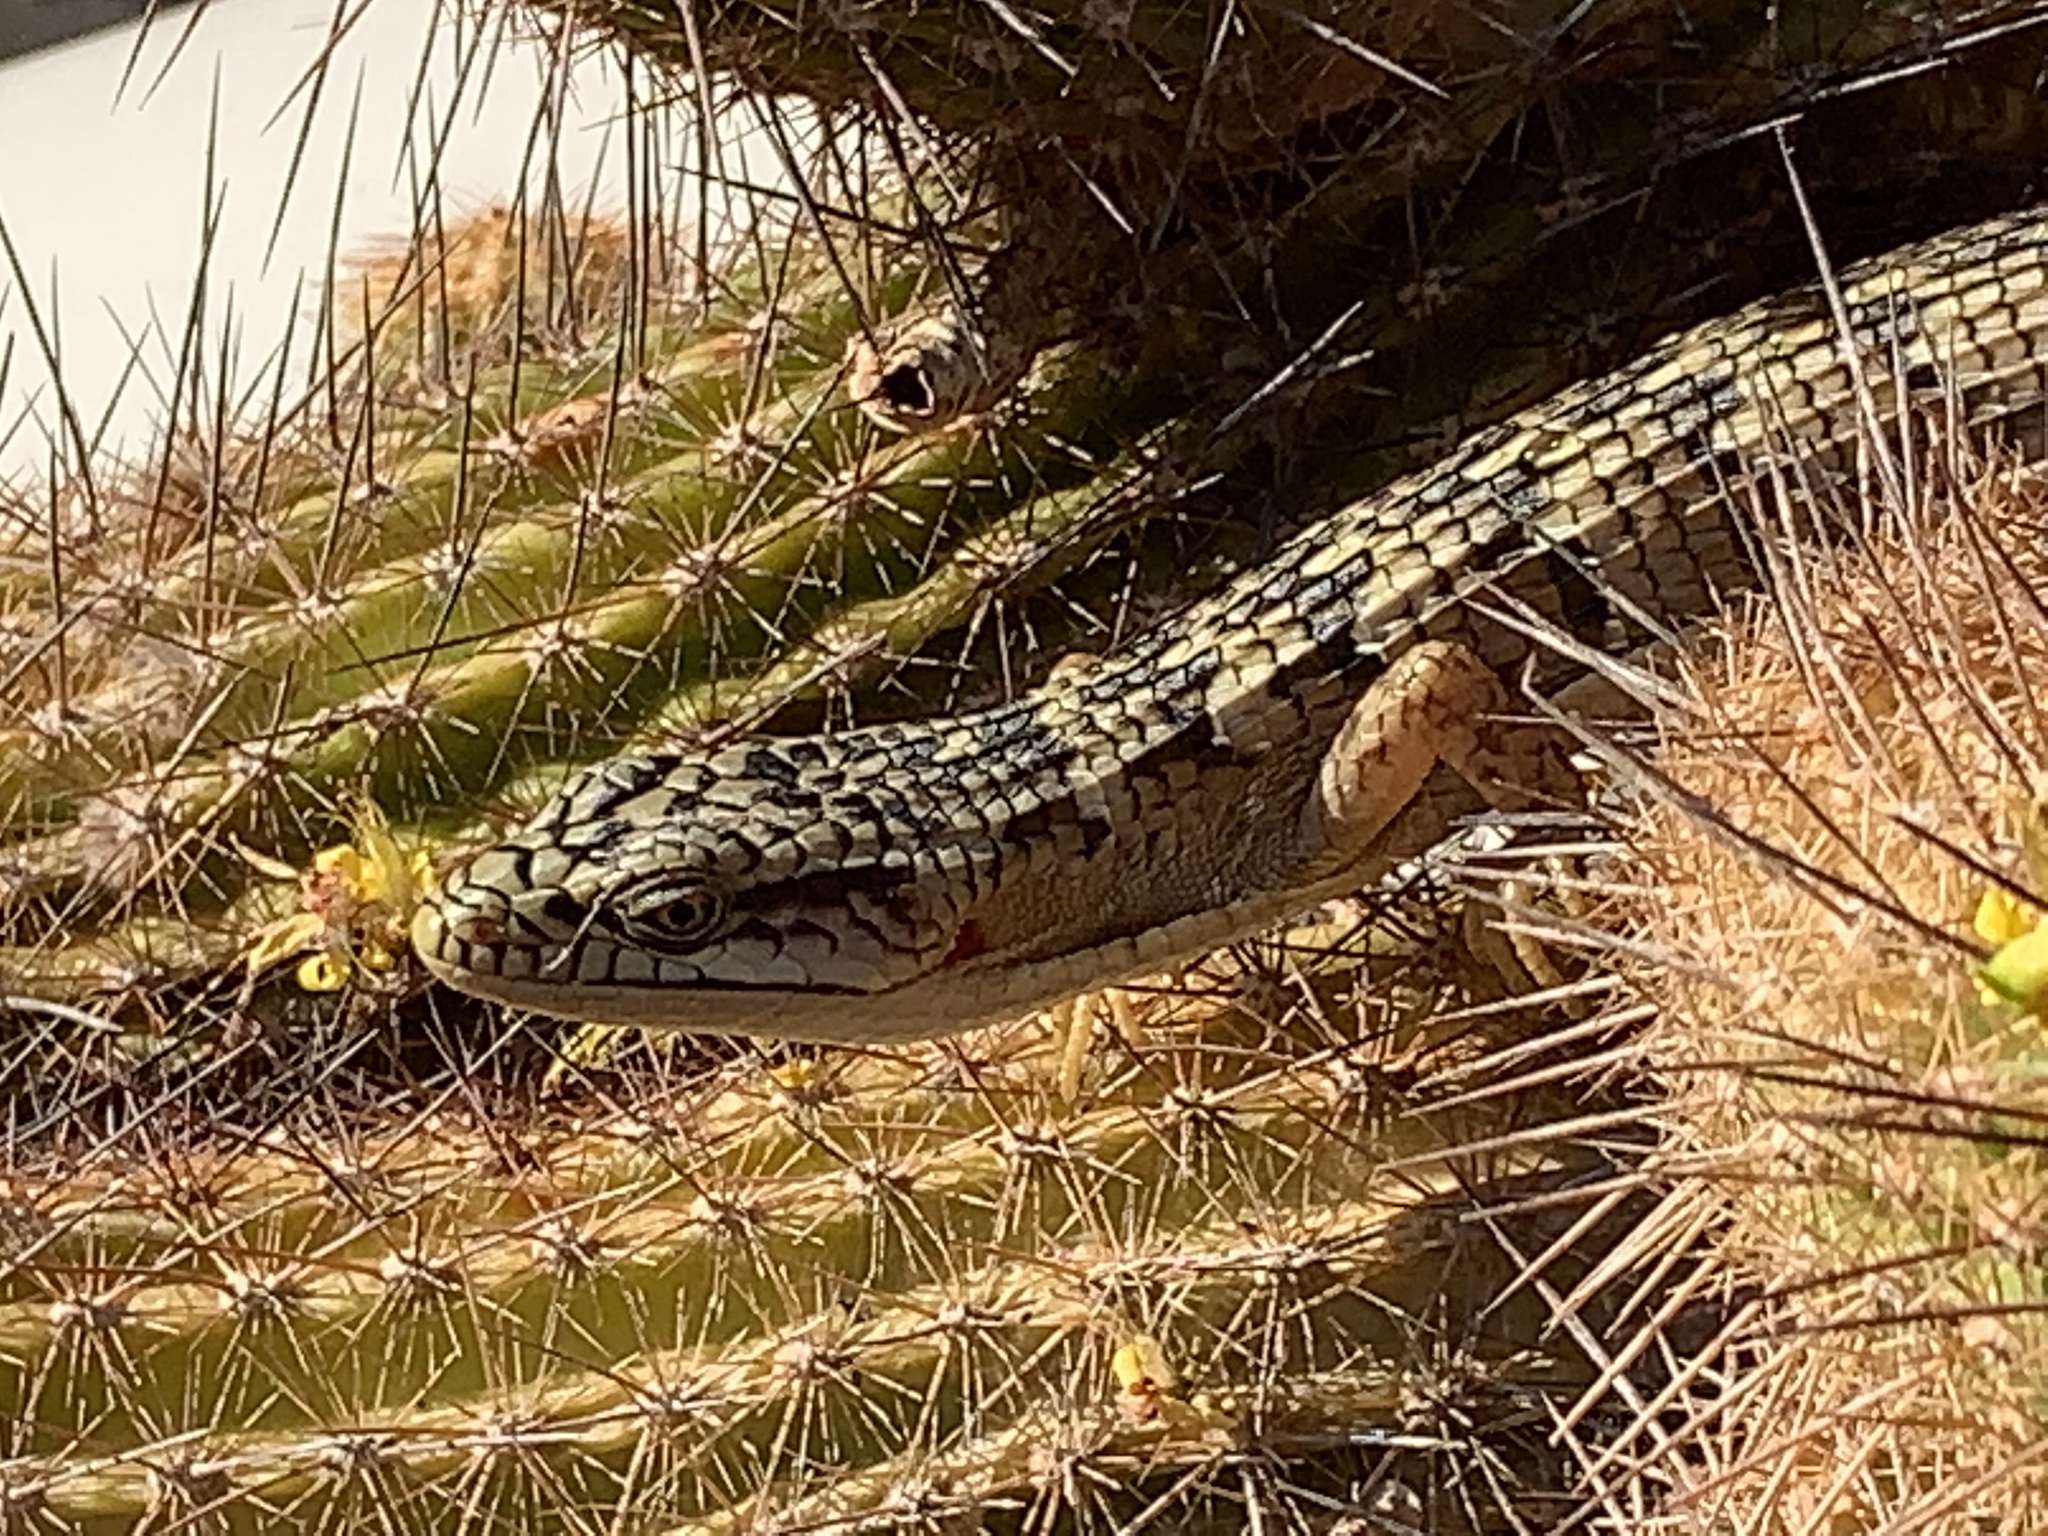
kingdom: Animalia
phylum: Chordata
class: Squamata
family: Anguidae
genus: Elgaria
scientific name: Elgaria multicarinata
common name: Southern alligator lizard
